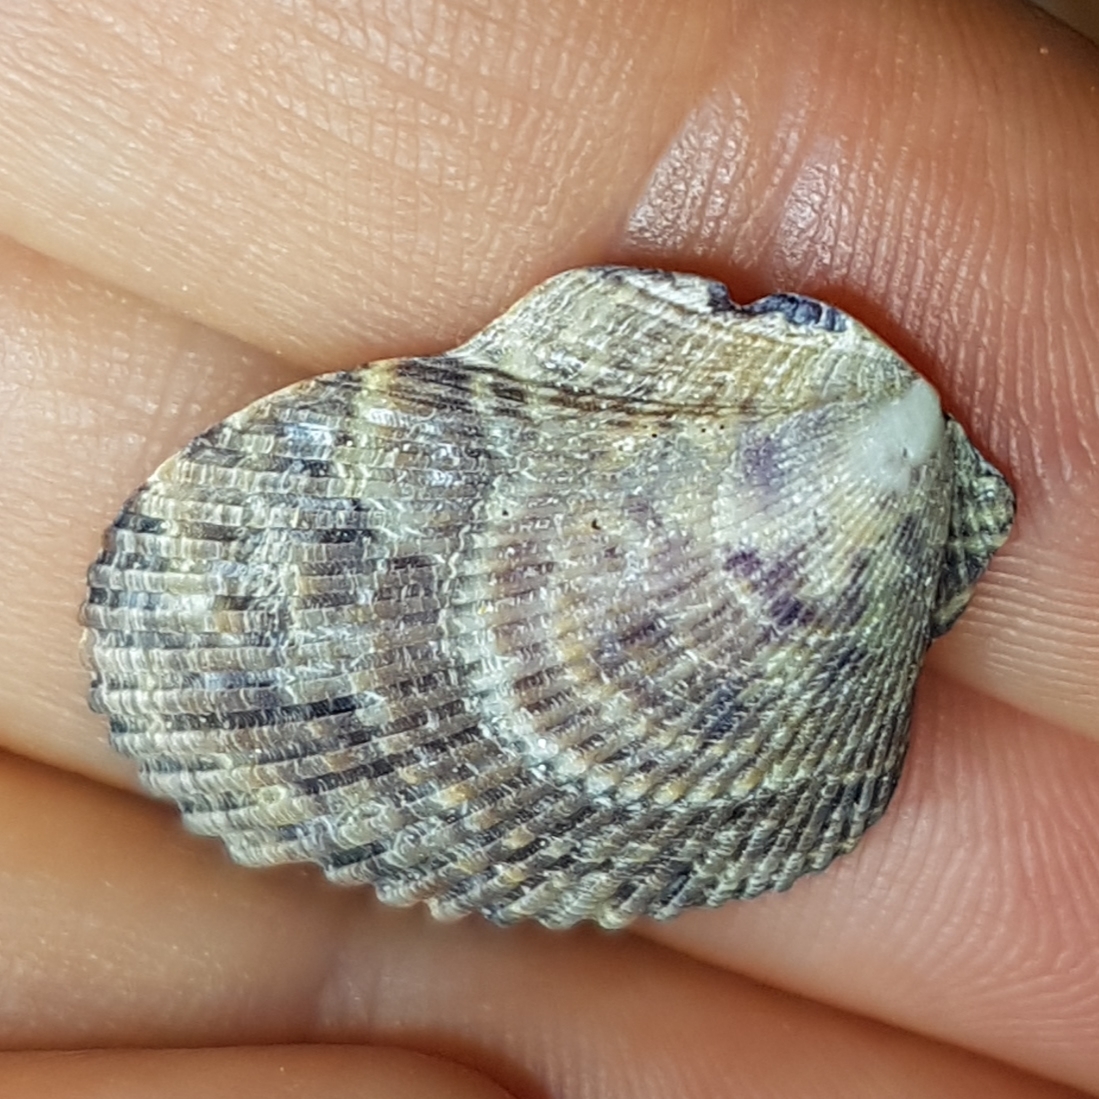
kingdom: Animalia
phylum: Mollusca
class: Bivalvia
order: Pectinida
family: Pectinidae
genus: Mimachlamys
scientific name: Mimachlamys varia
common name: Variegated scallop
